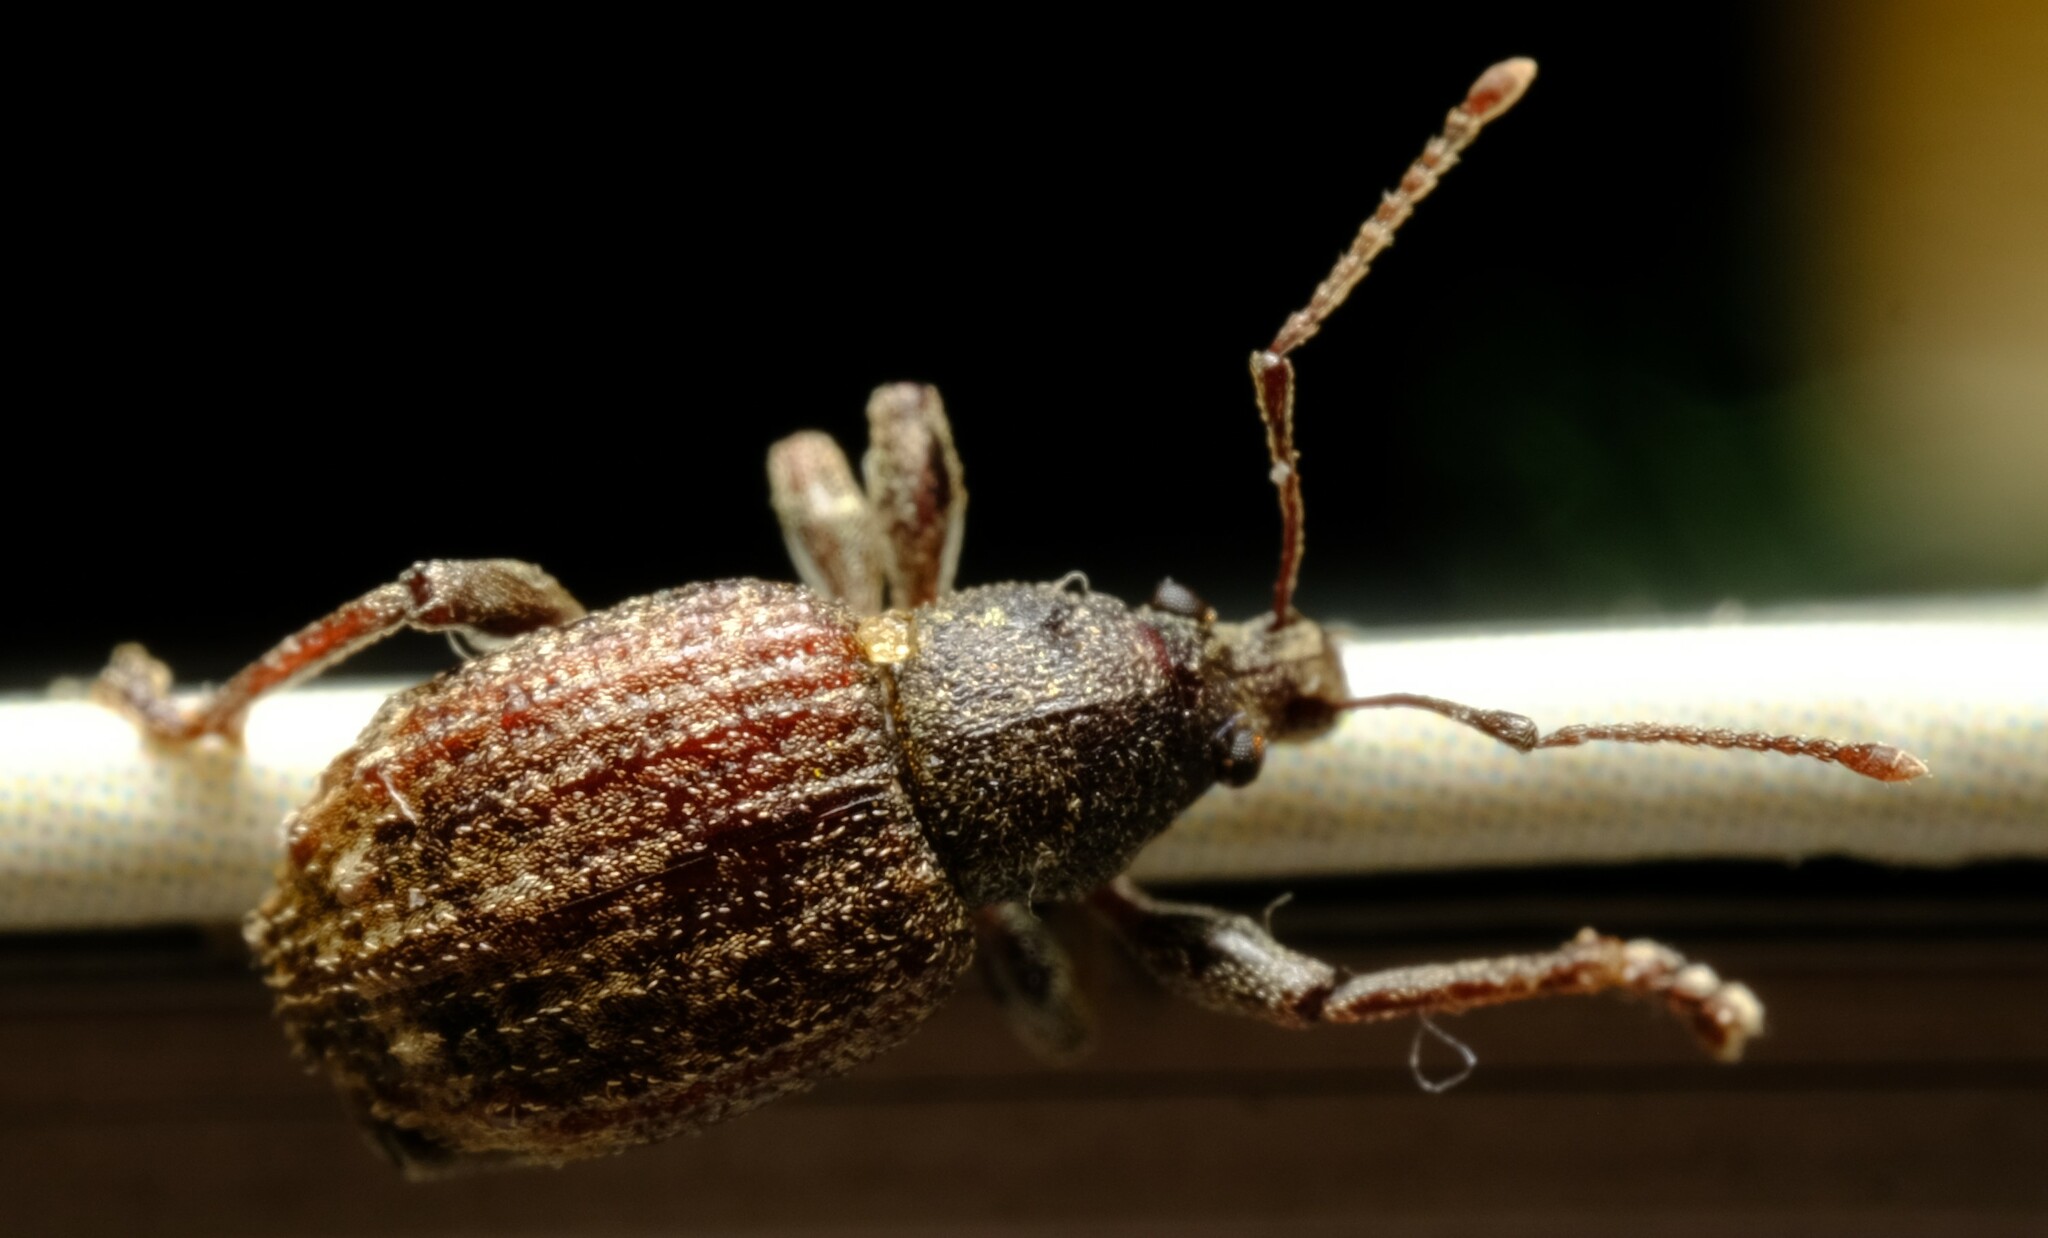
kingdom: Animalia
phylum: Arthropoda
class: Insecta
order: Coleoptera
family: Curculionidae
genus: Phlyctinus
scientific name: Phlyctinus callosus
